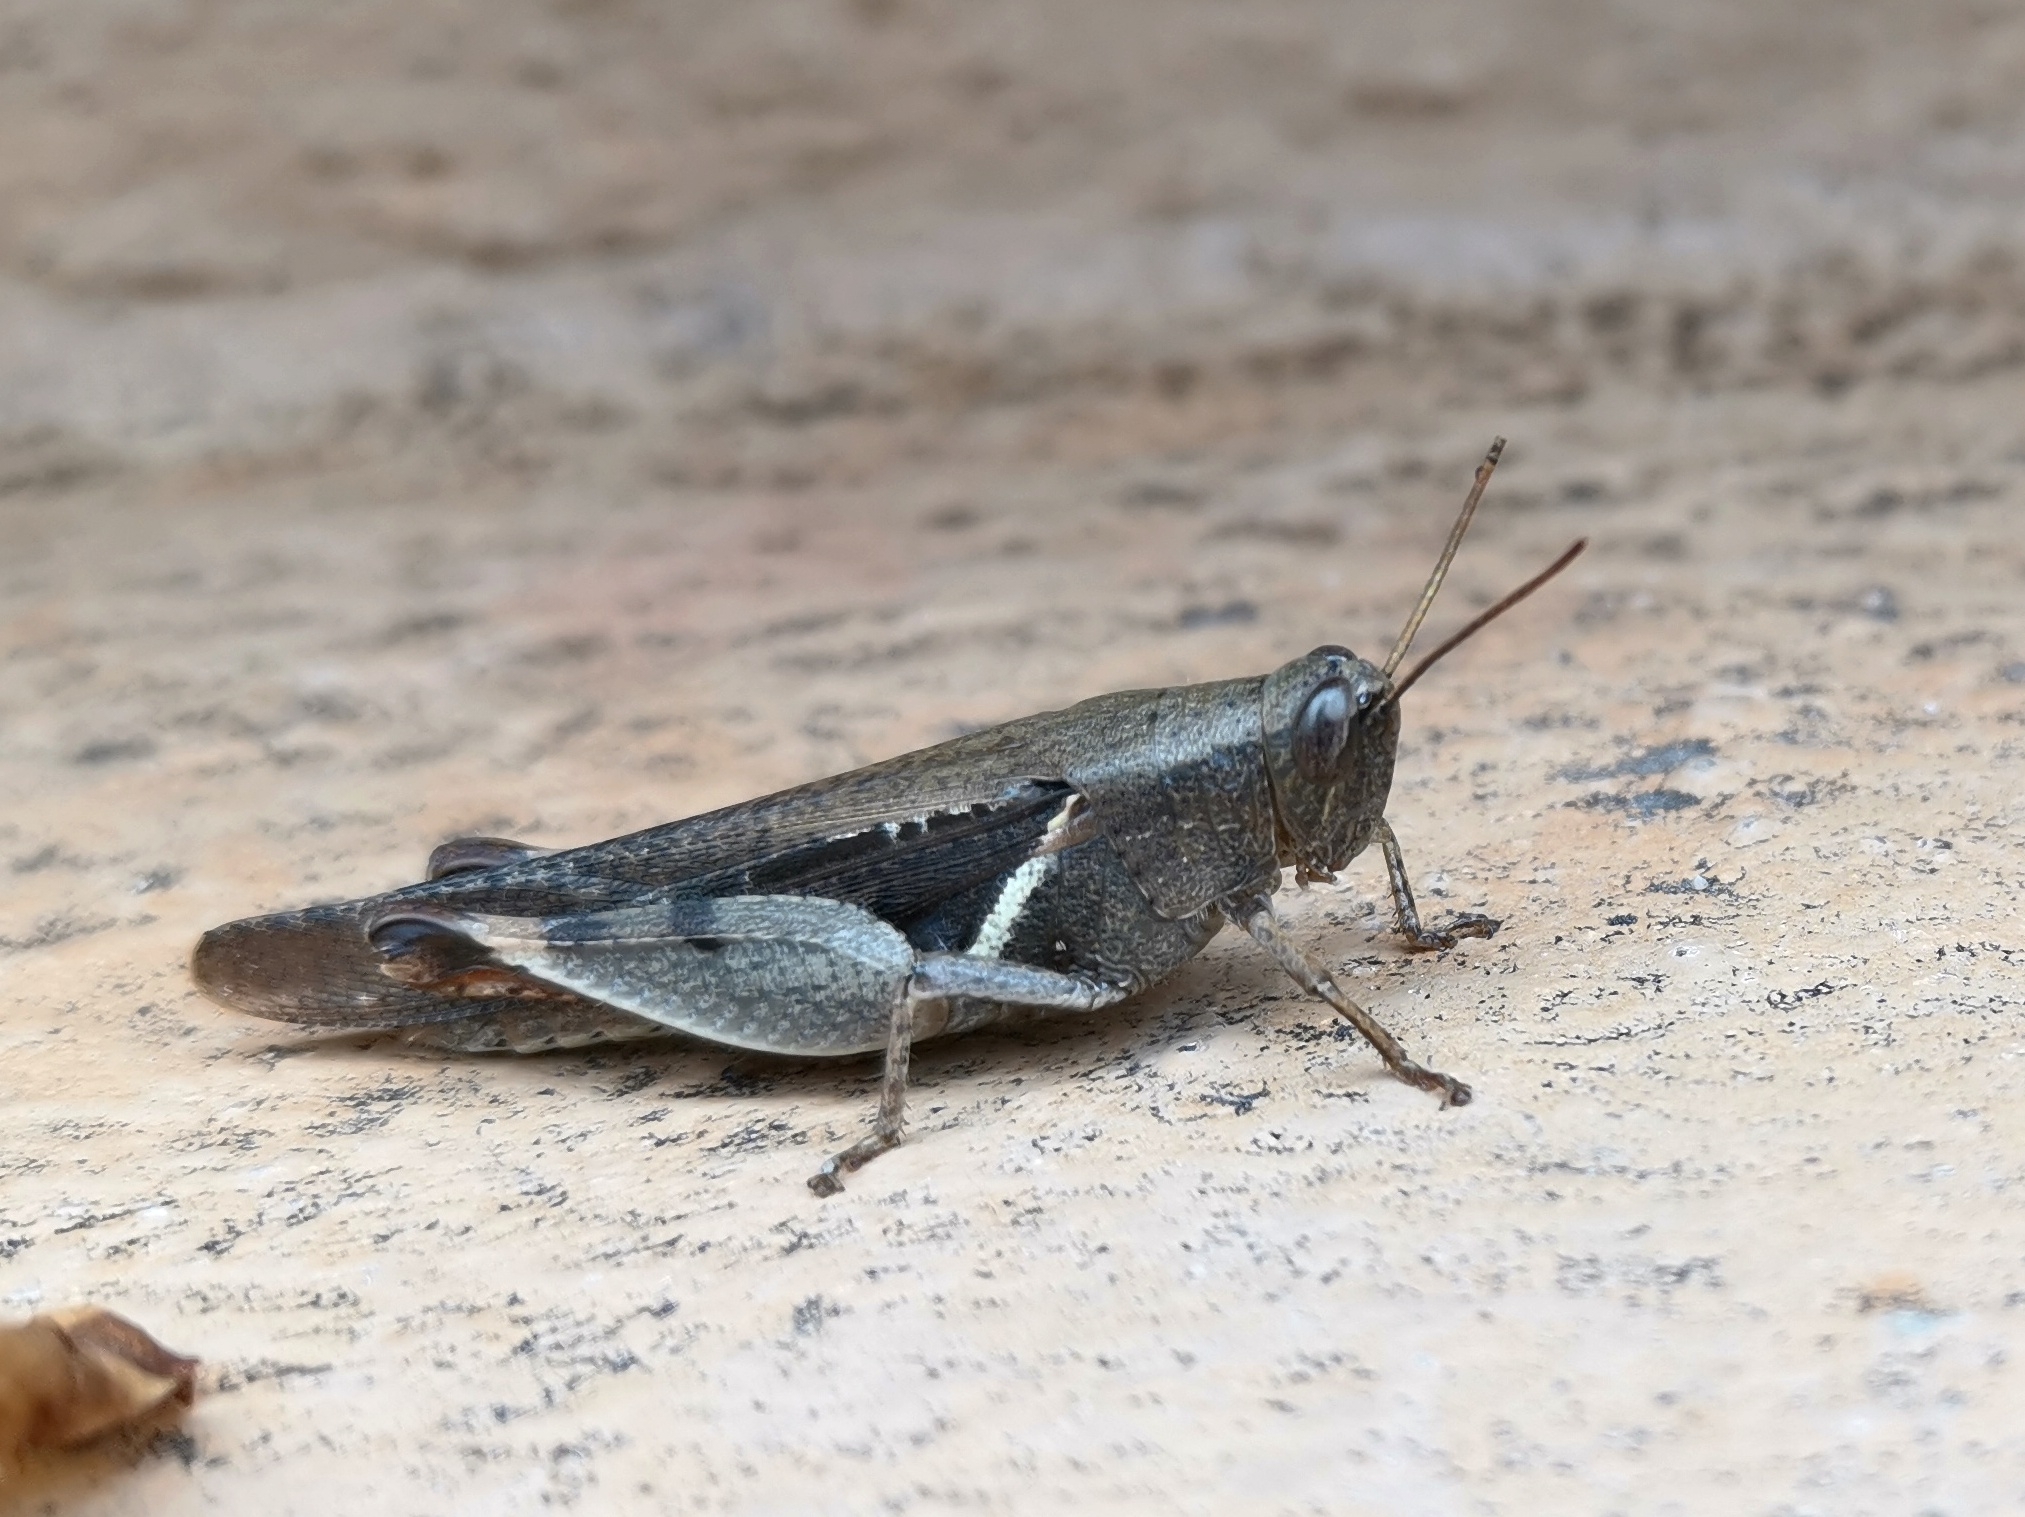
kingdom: Animalia
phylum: Arthropoda
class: Insecta
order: Orthoptera
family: Acrididae
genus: Diabolocatantops
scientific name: Diabolocatantops innotabilis
